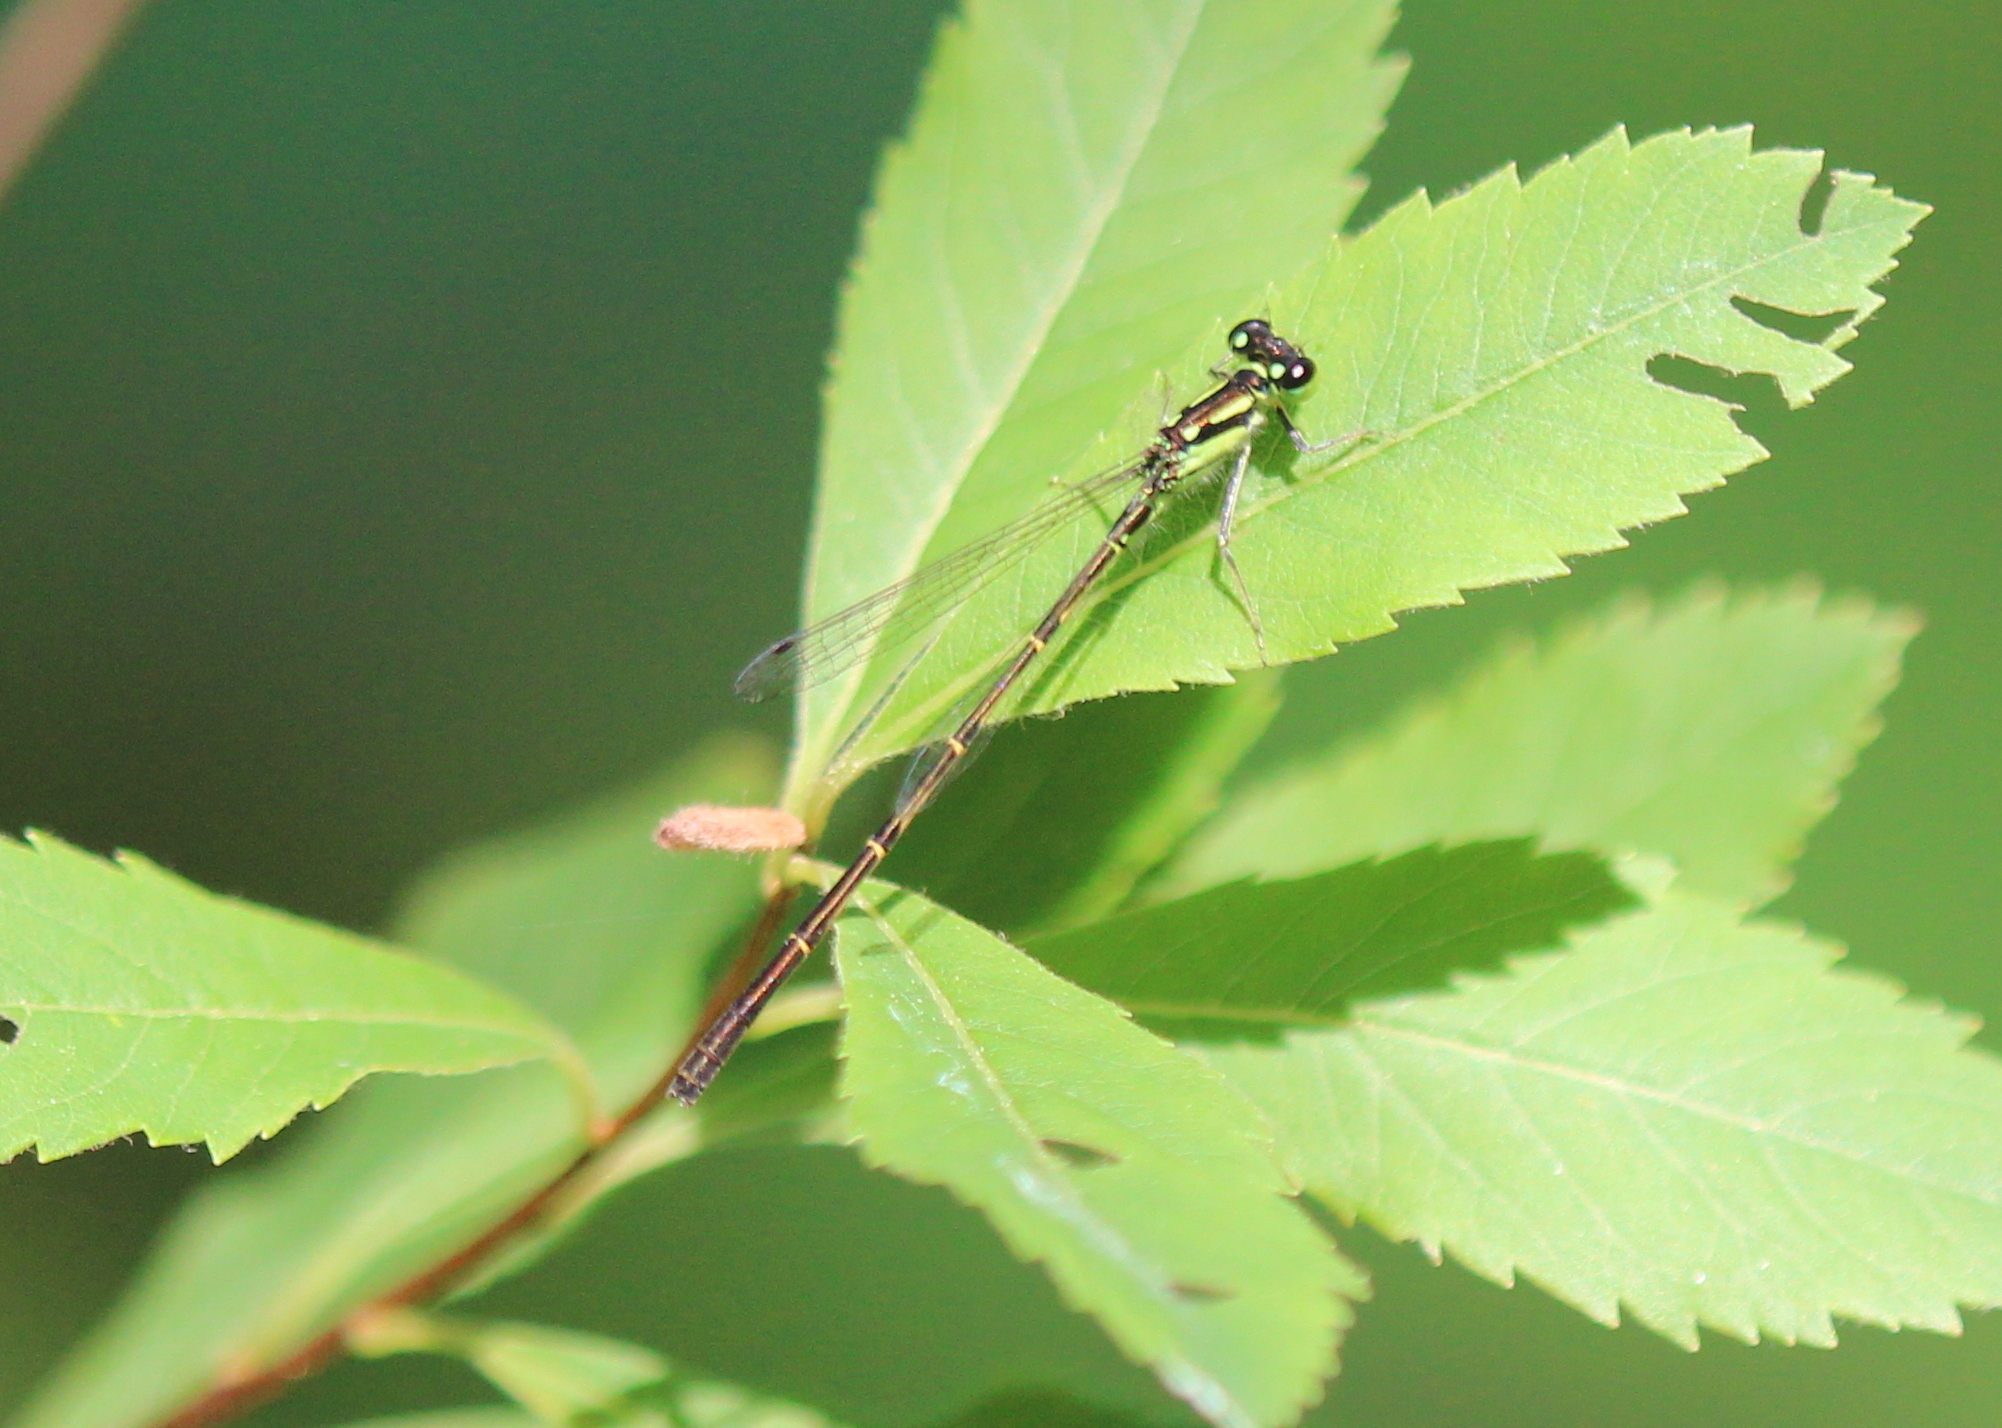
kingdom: Animalia
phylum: Arthropoda
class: Insecta
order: Odonata
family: Coenagrionidae
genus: Ischnura
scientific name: Ischnura posita
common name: Fragile forktail
